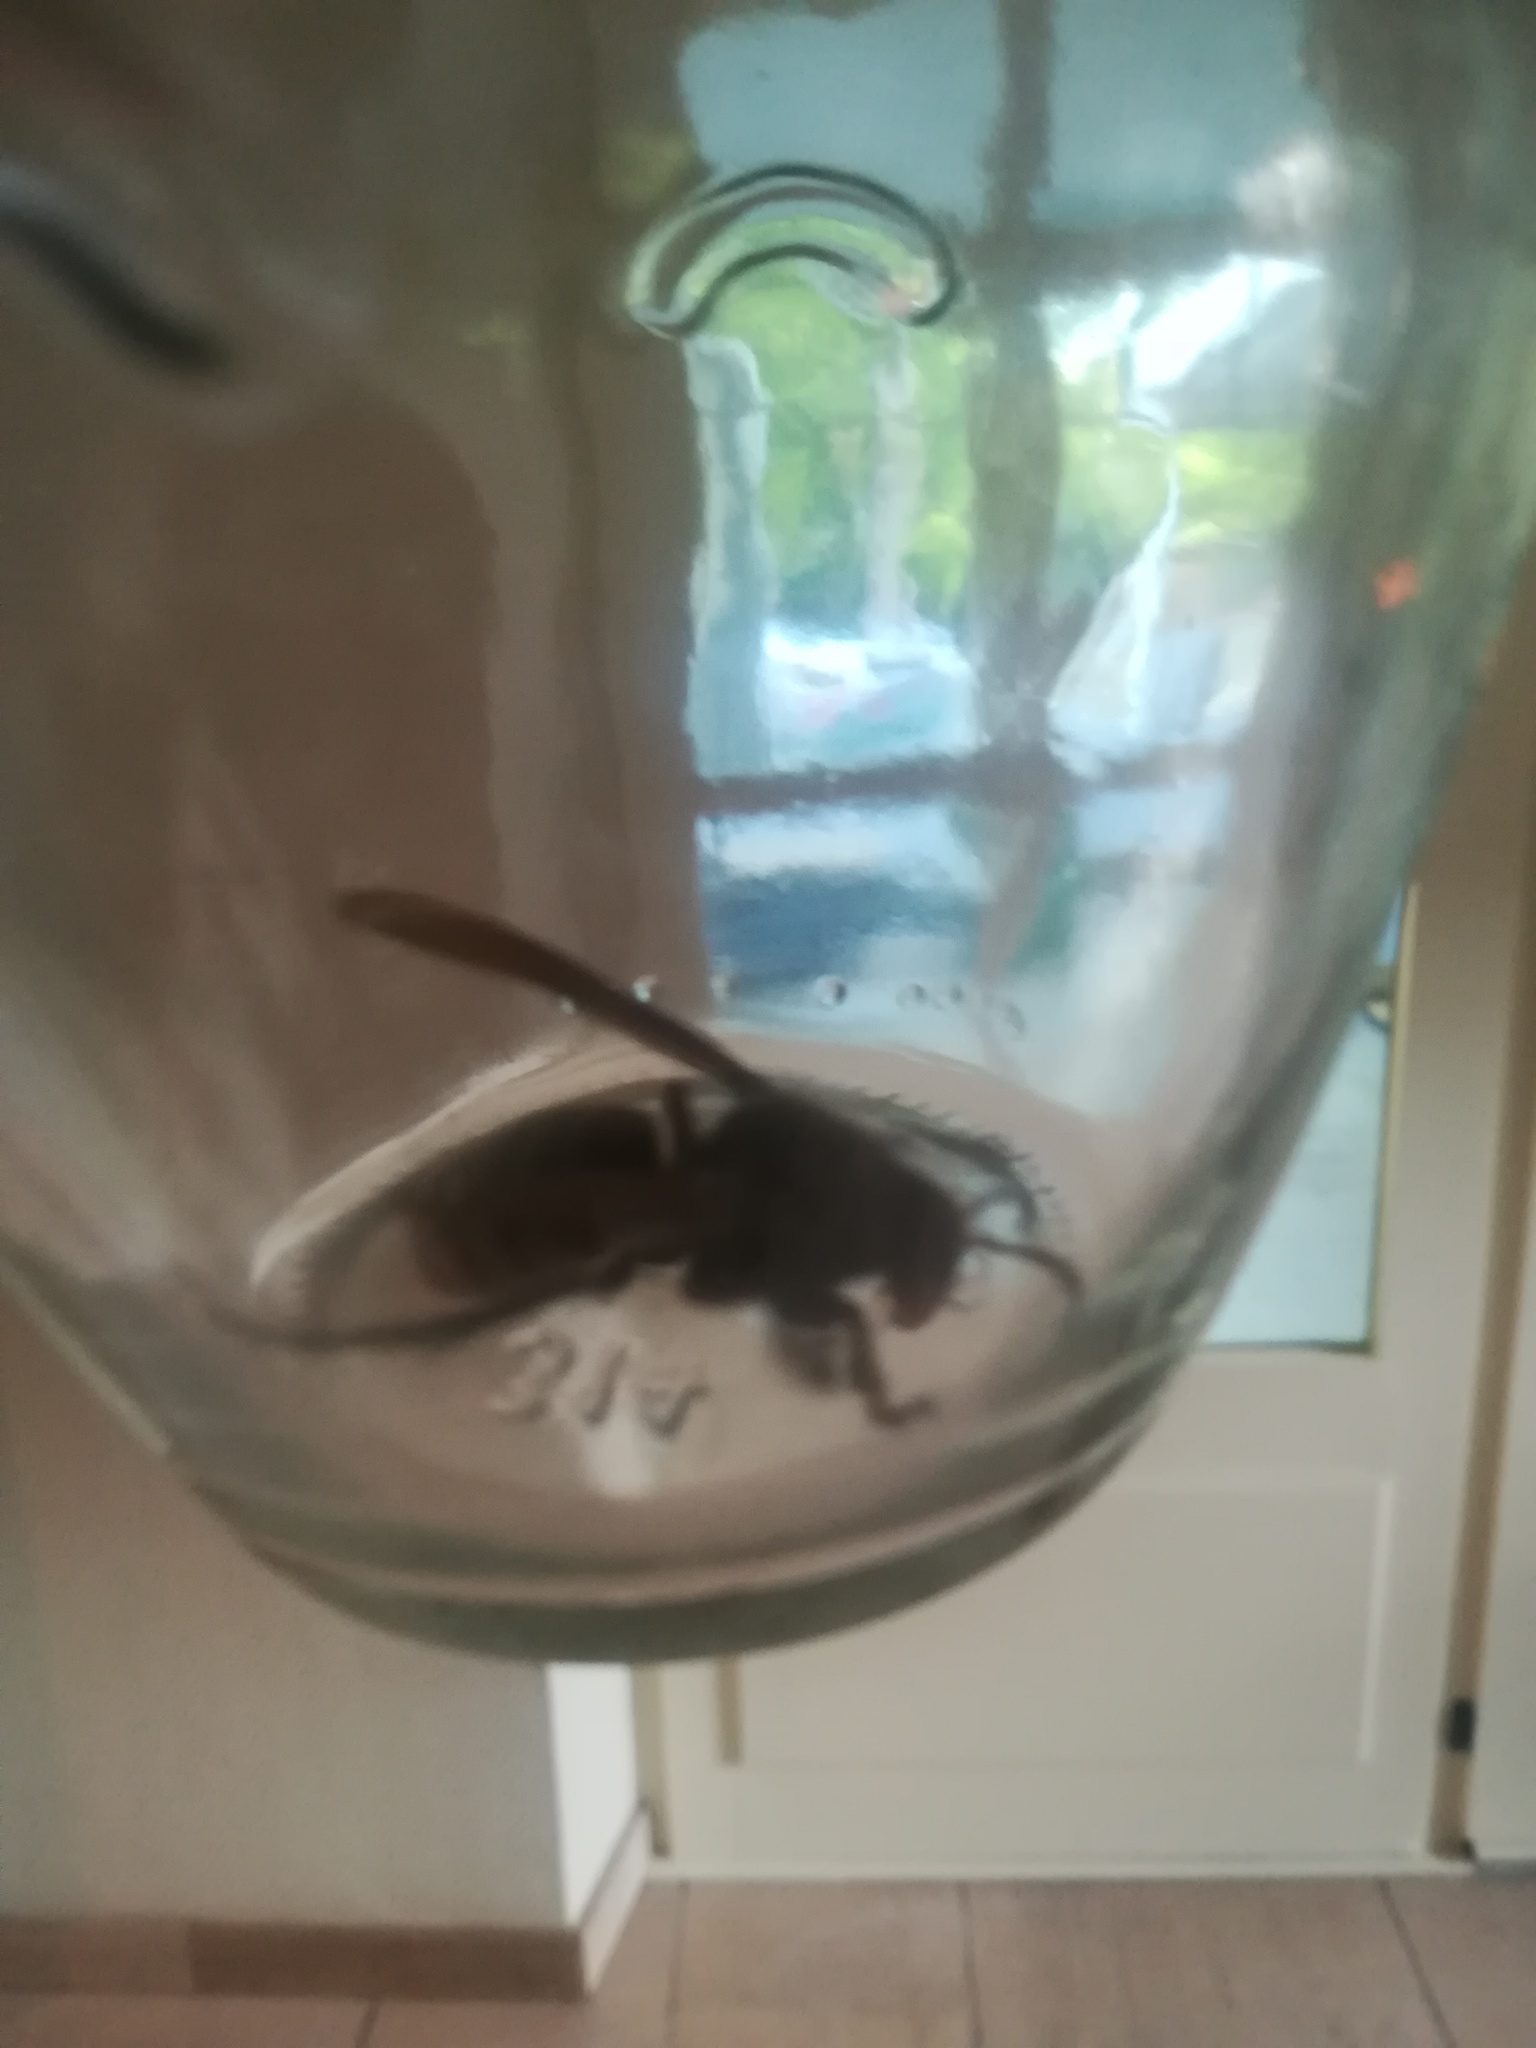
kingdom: Animalia
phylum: Arthropoda
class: Insecta
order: Hymenoptera
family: Vespidae
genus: Vespa
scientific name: Vespa crabro
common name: Hornet
